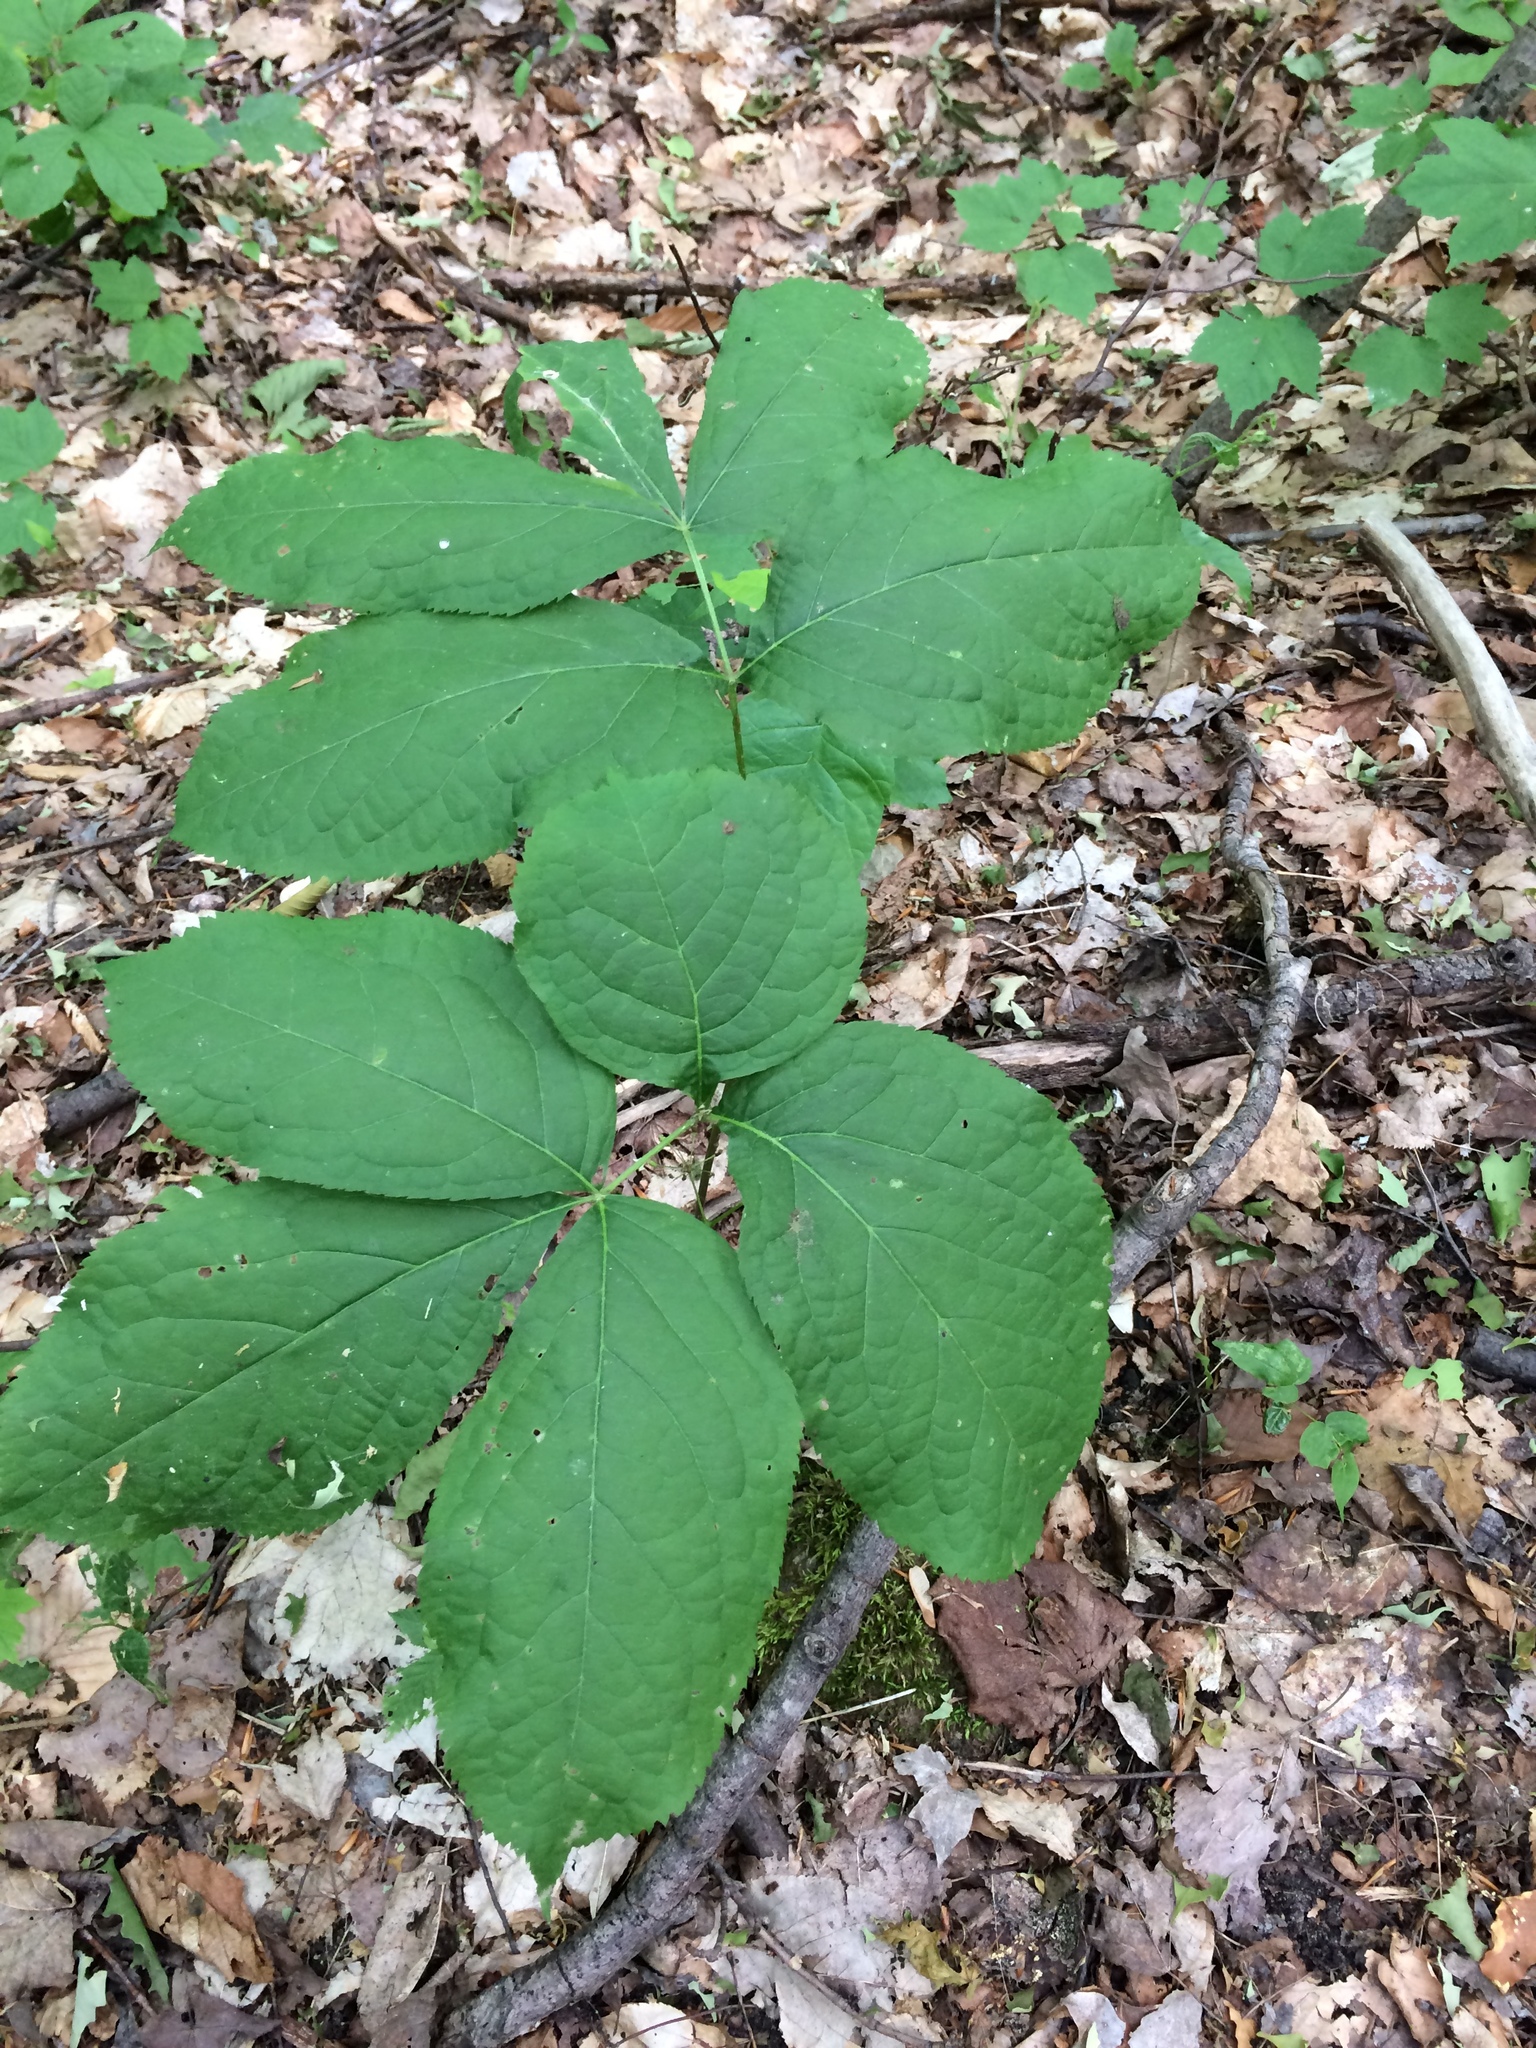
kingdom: Plantae
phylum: Tracheophyta
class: Magnoliopsida
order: Apiales
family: Araliaceae
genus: Aralia
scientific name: Aralia nudicaulis
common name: Wild sarsaparilla
